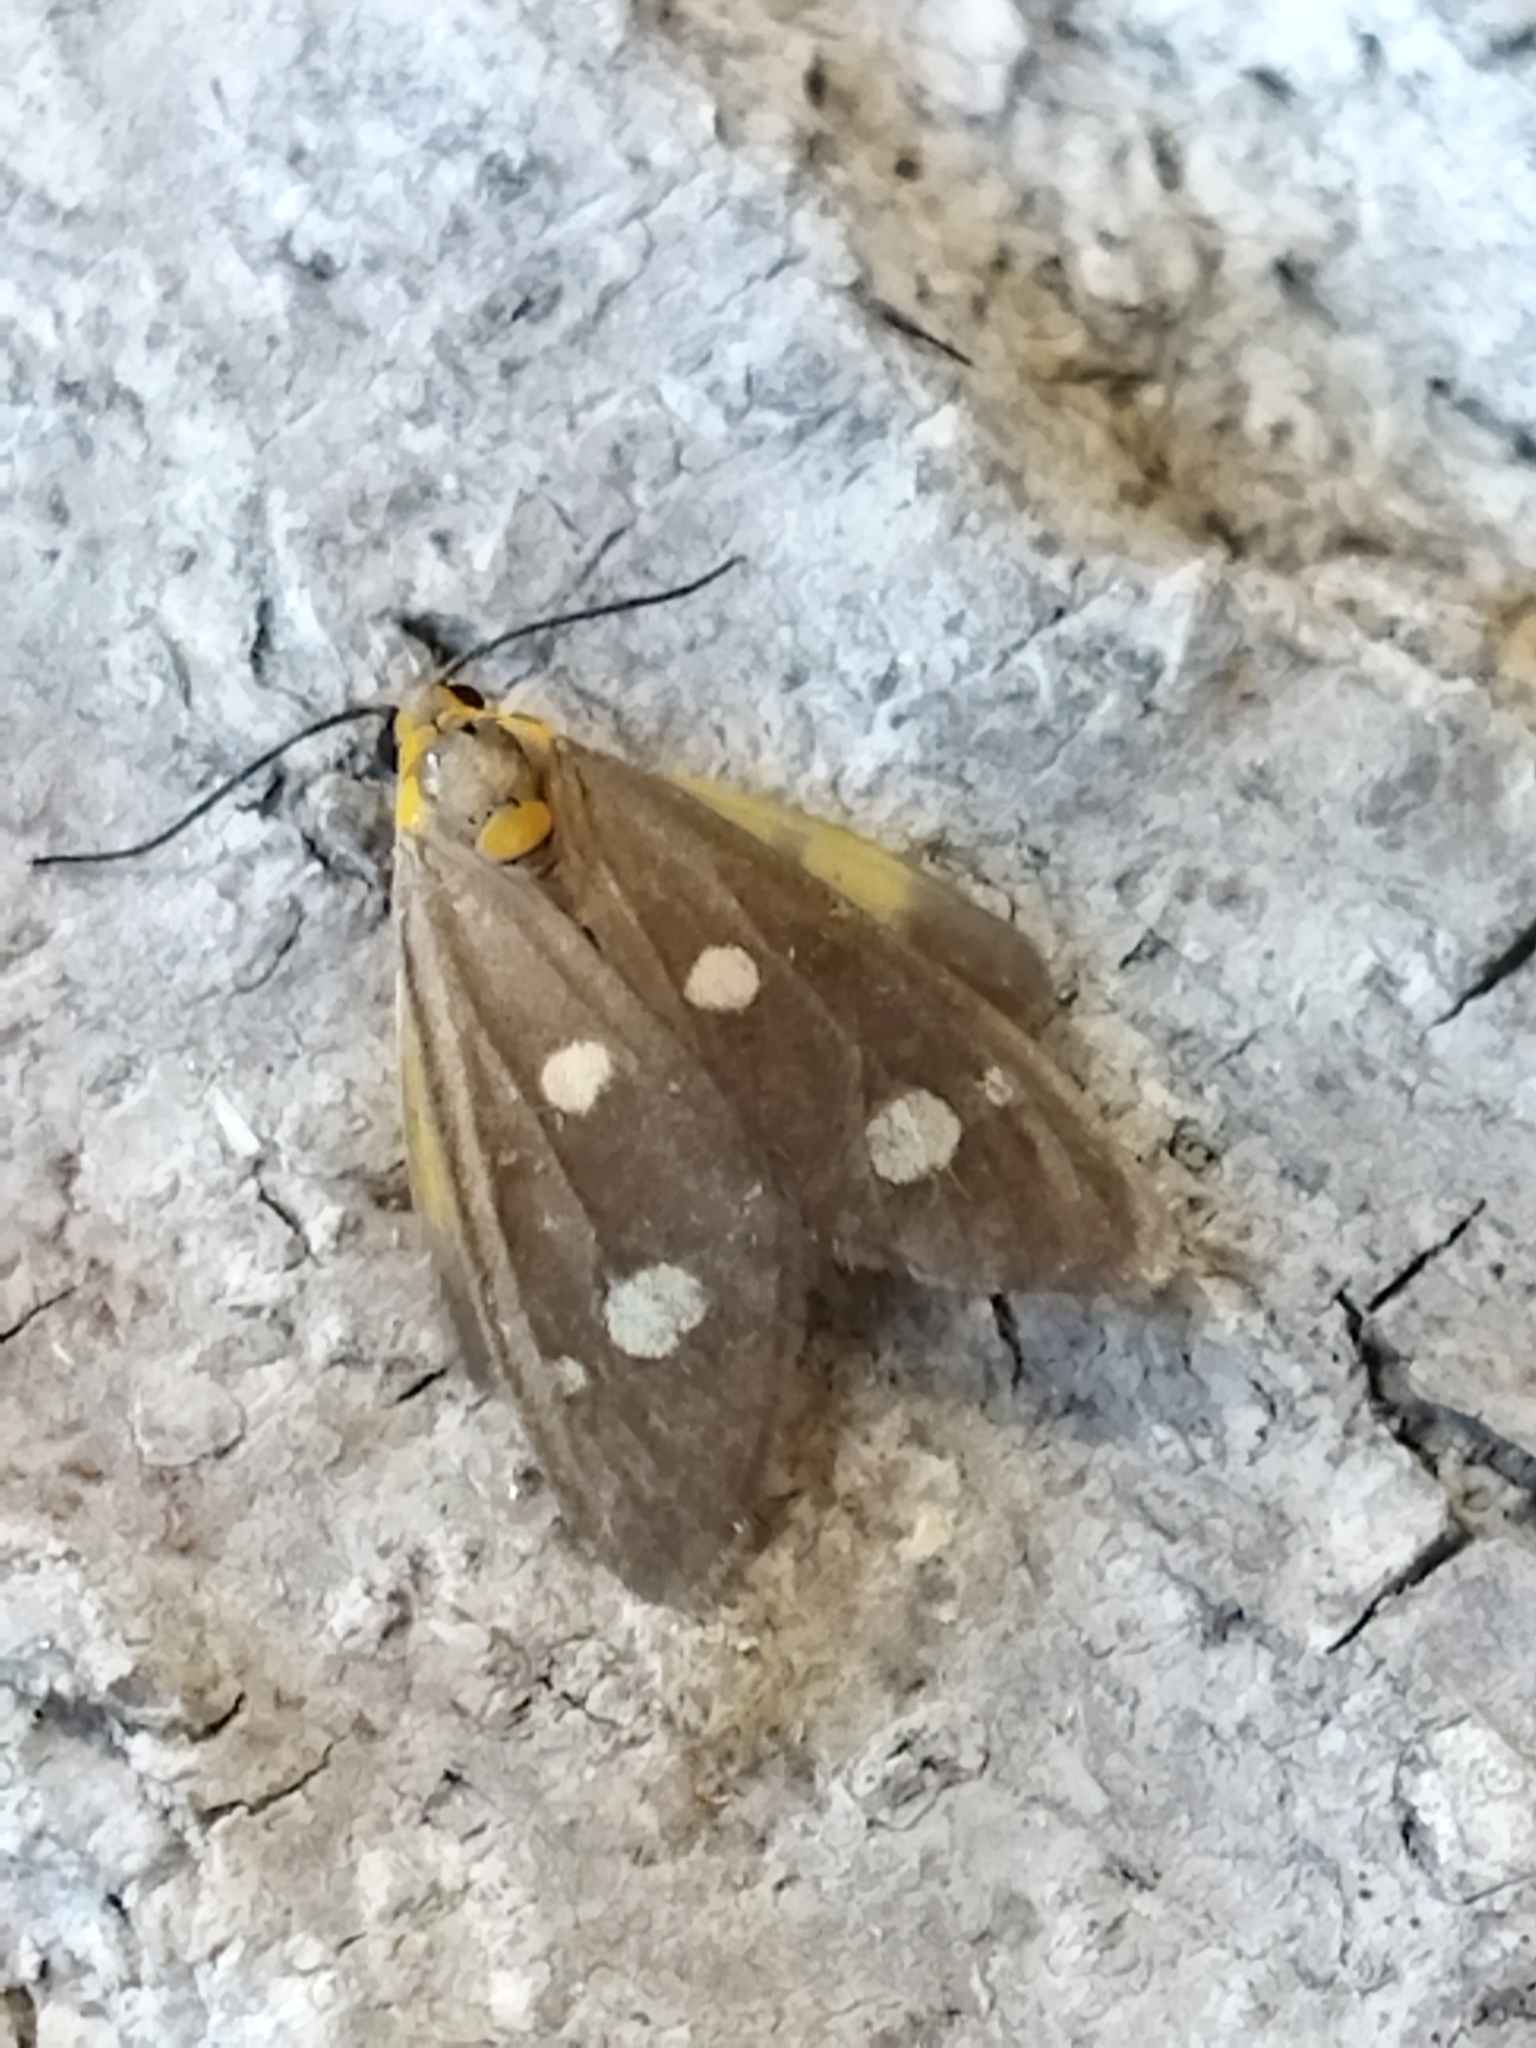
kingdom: Animalia
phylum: Arthropoda
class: Insecta
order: Lepidoptera
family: Erebidae
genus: Dysauxes
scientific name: Dysauxes punctata
